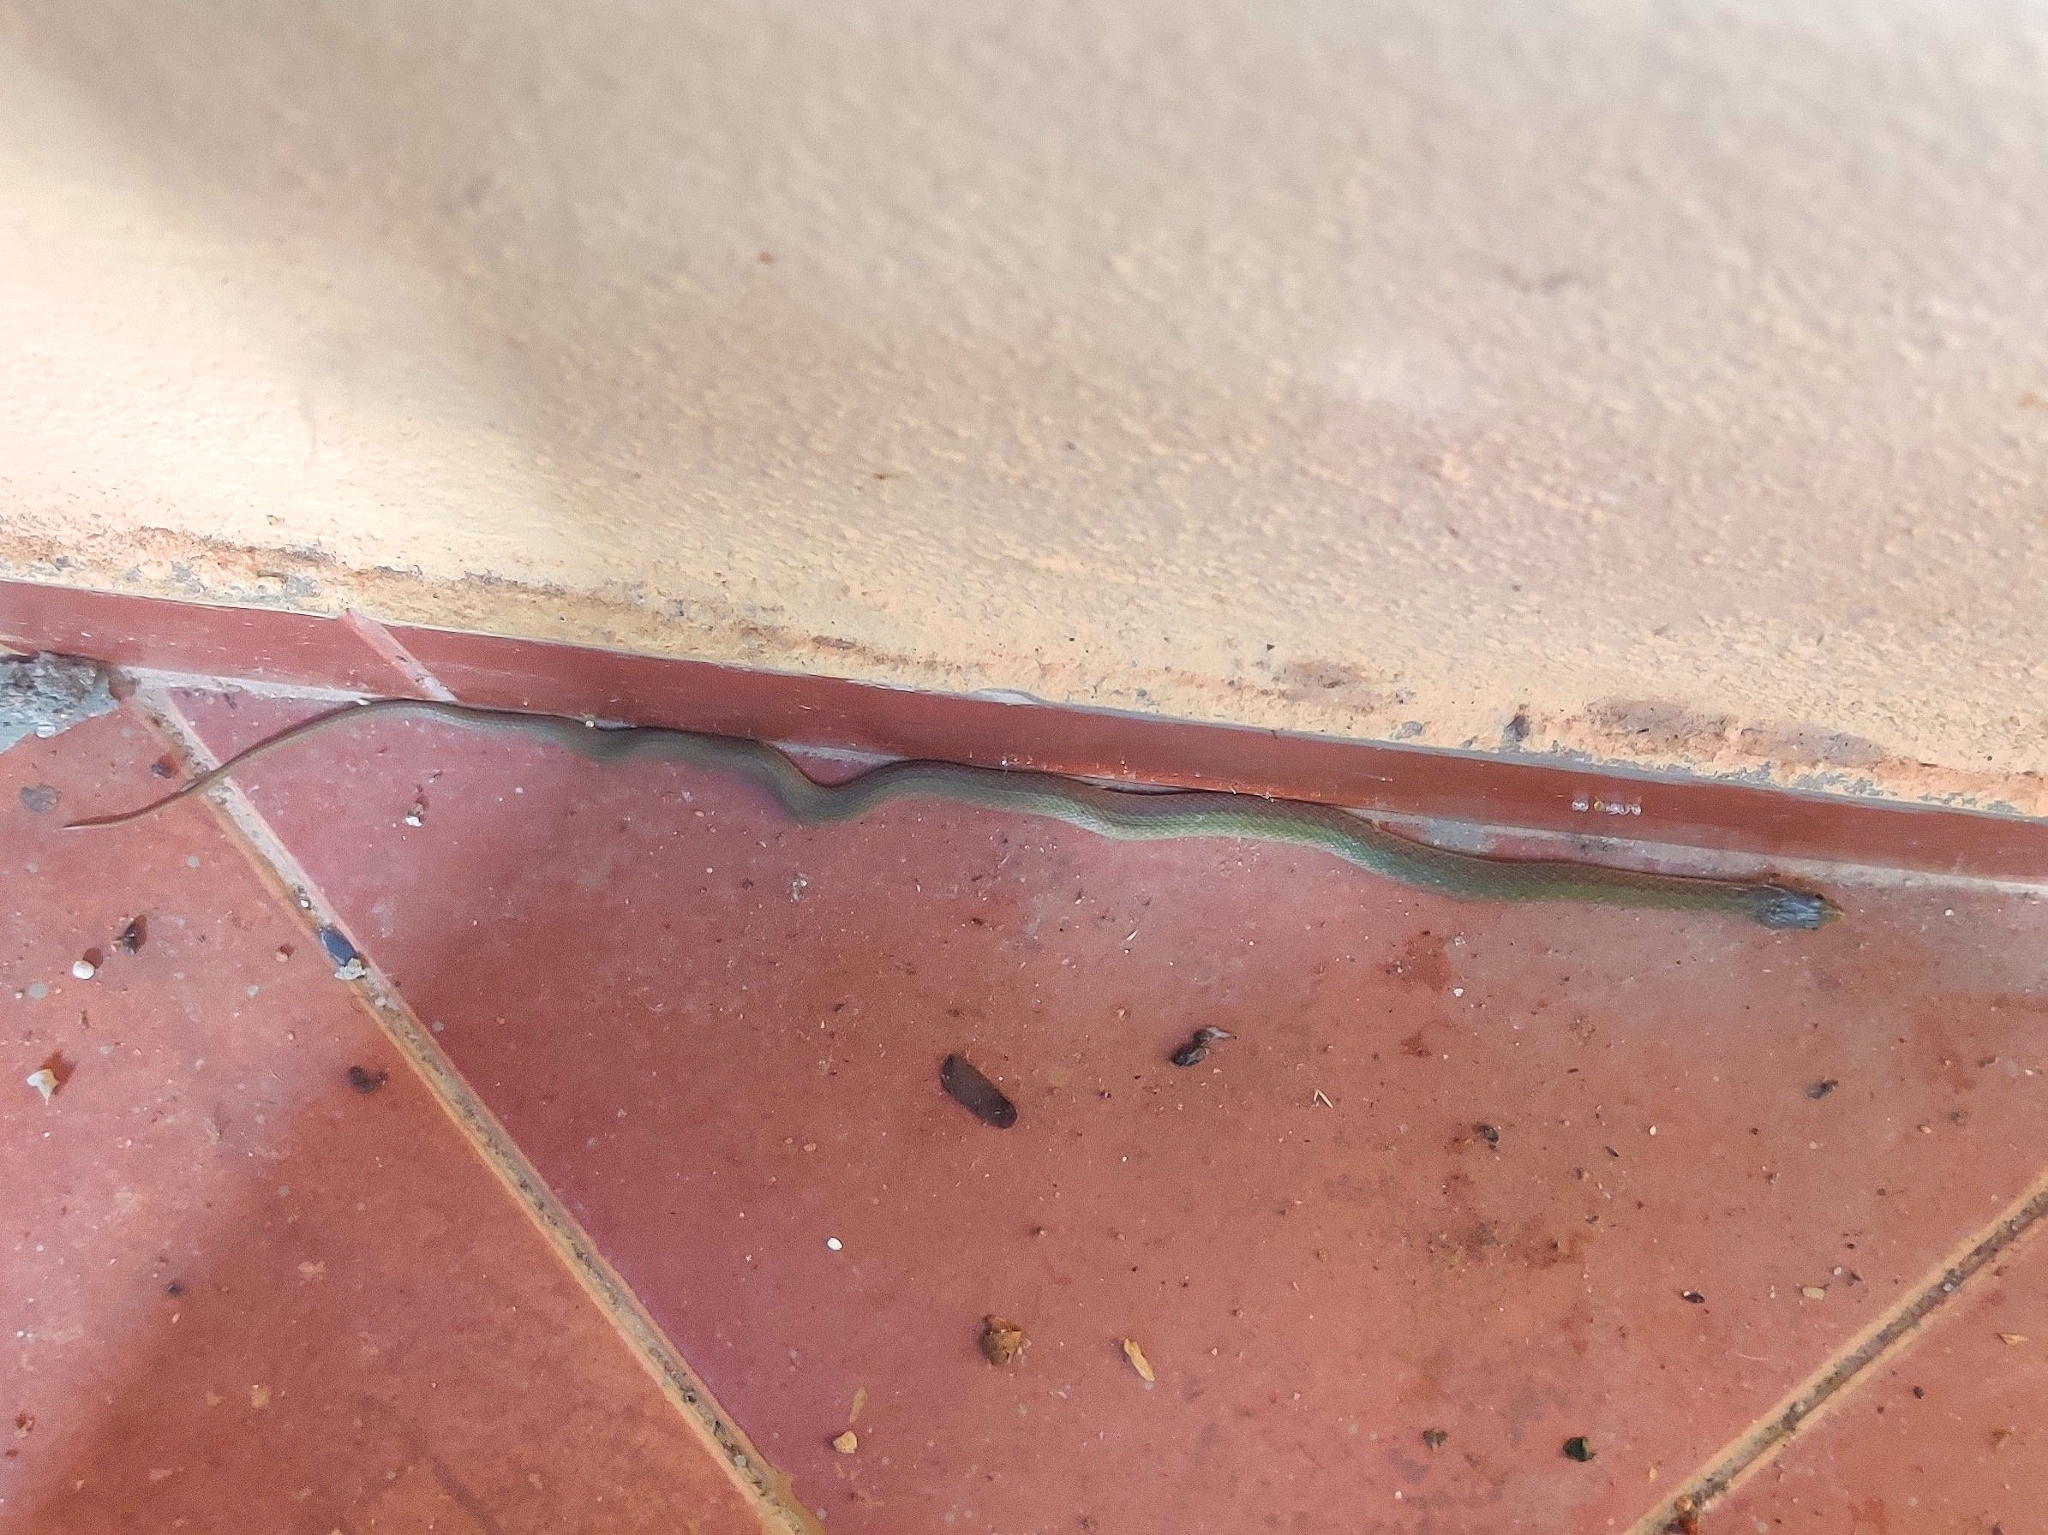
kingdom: Animalia
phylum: Chordata
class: Squamata
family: Colubridae
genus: Fowlea
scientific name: Fowlea piscator
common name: Asiatic water snake
